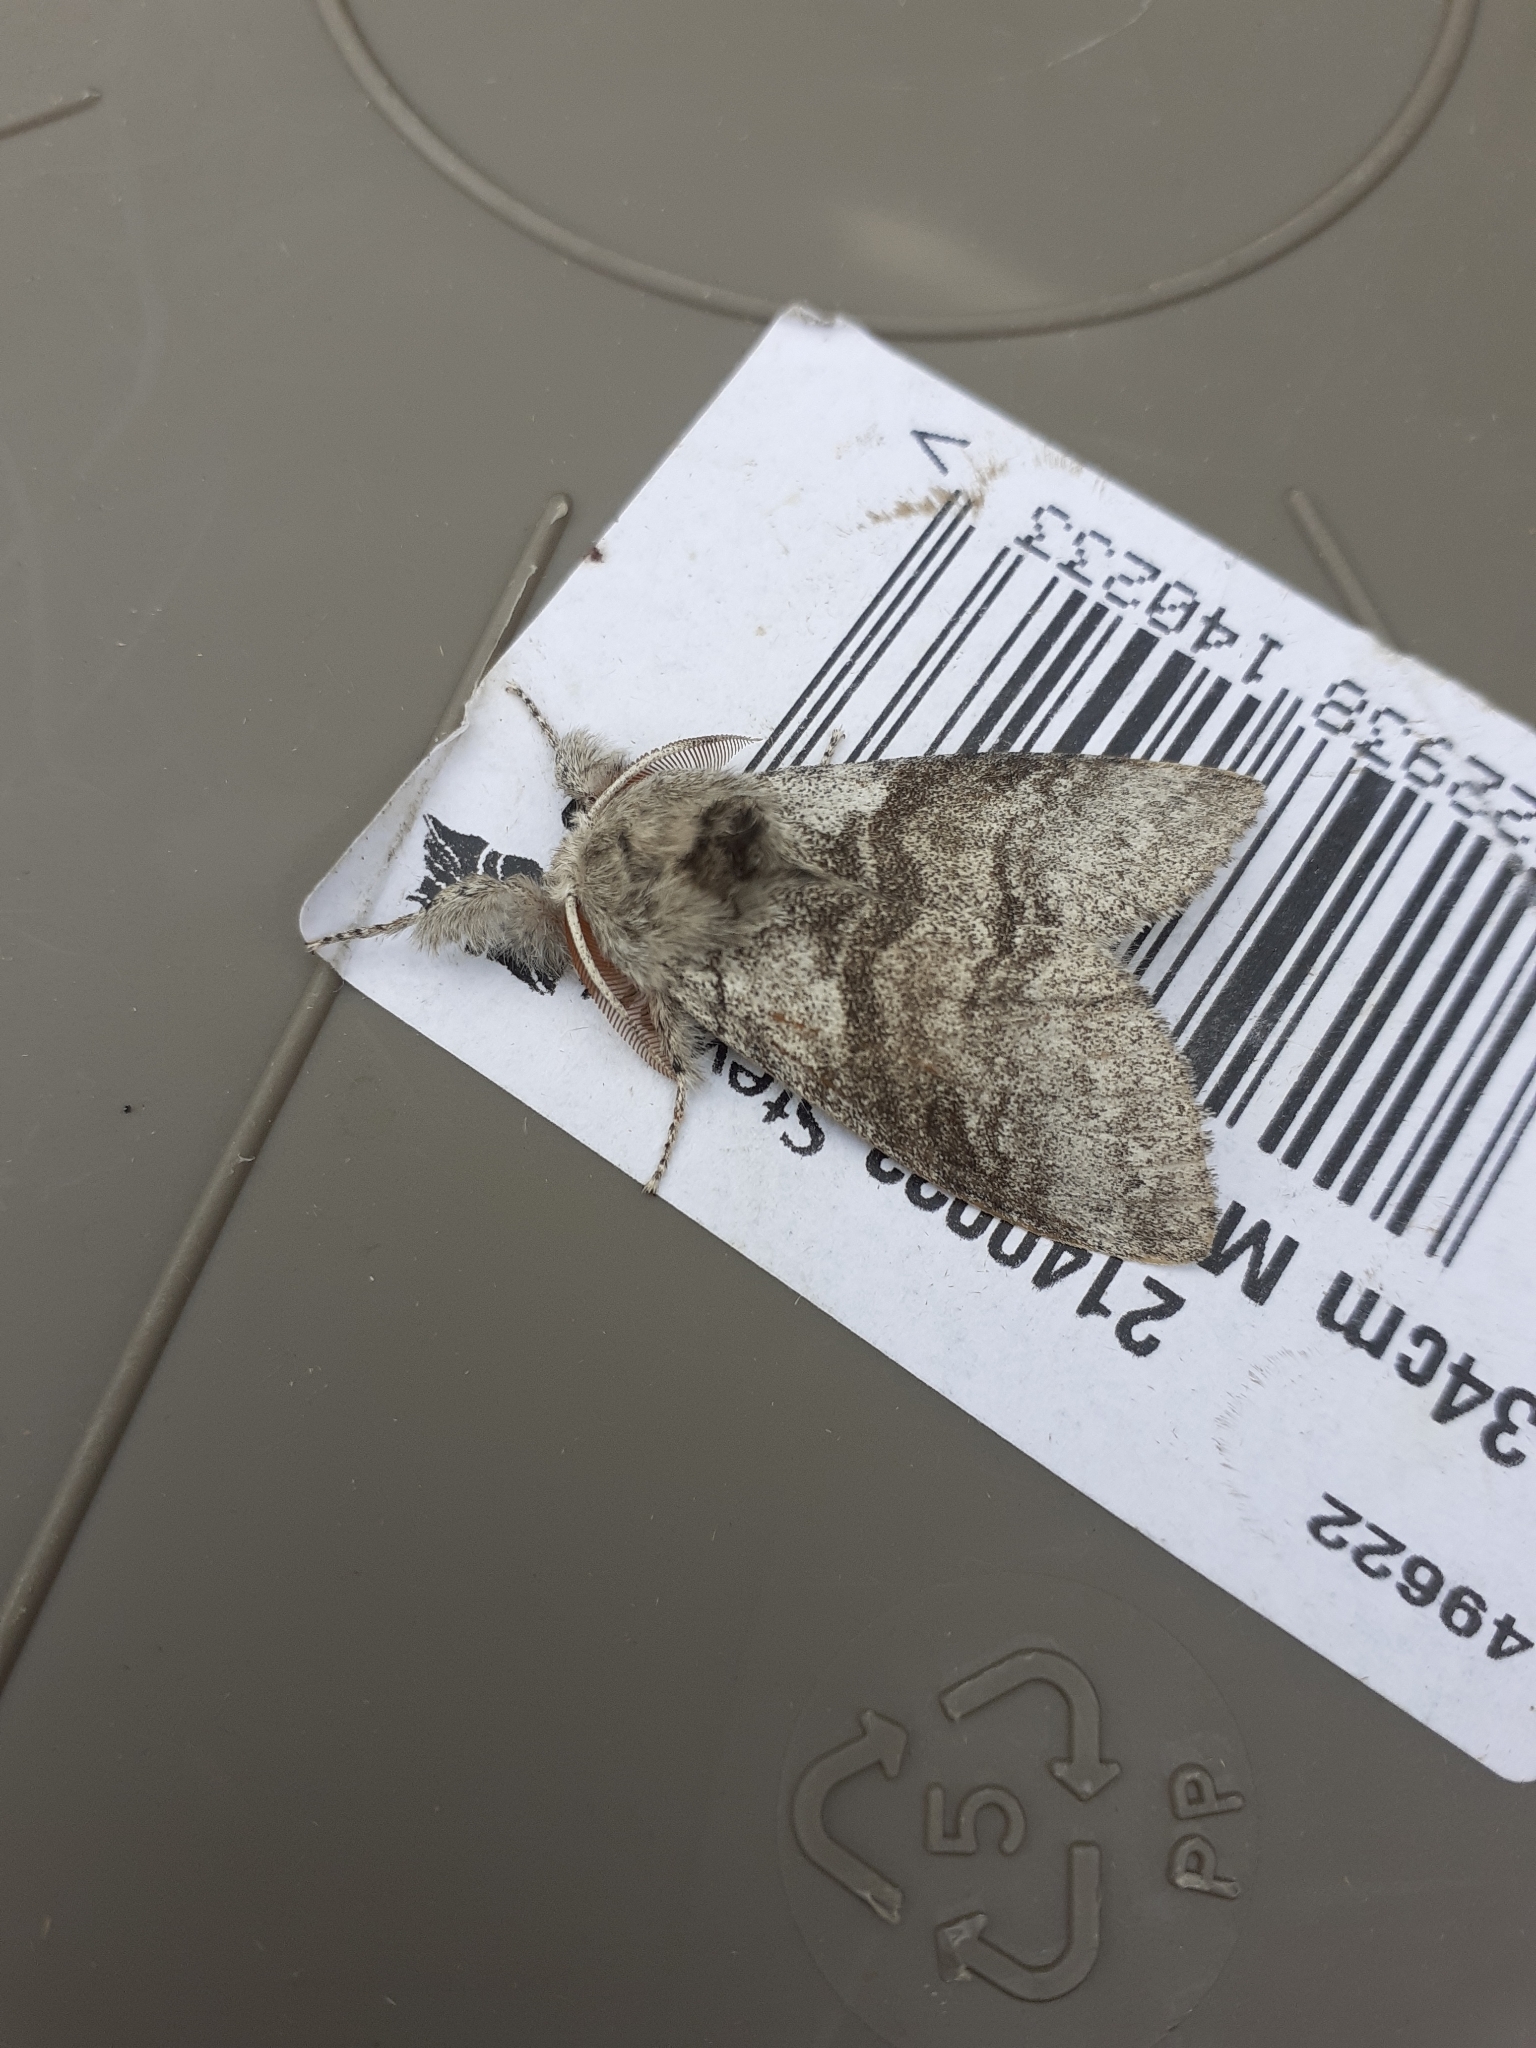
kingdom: Animalia
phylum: Arthropoda
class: Insecta
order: Lepidoptera
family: Erebidae
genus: Calliteara
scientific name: Calliteara pudibunda
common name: Pale tussock
